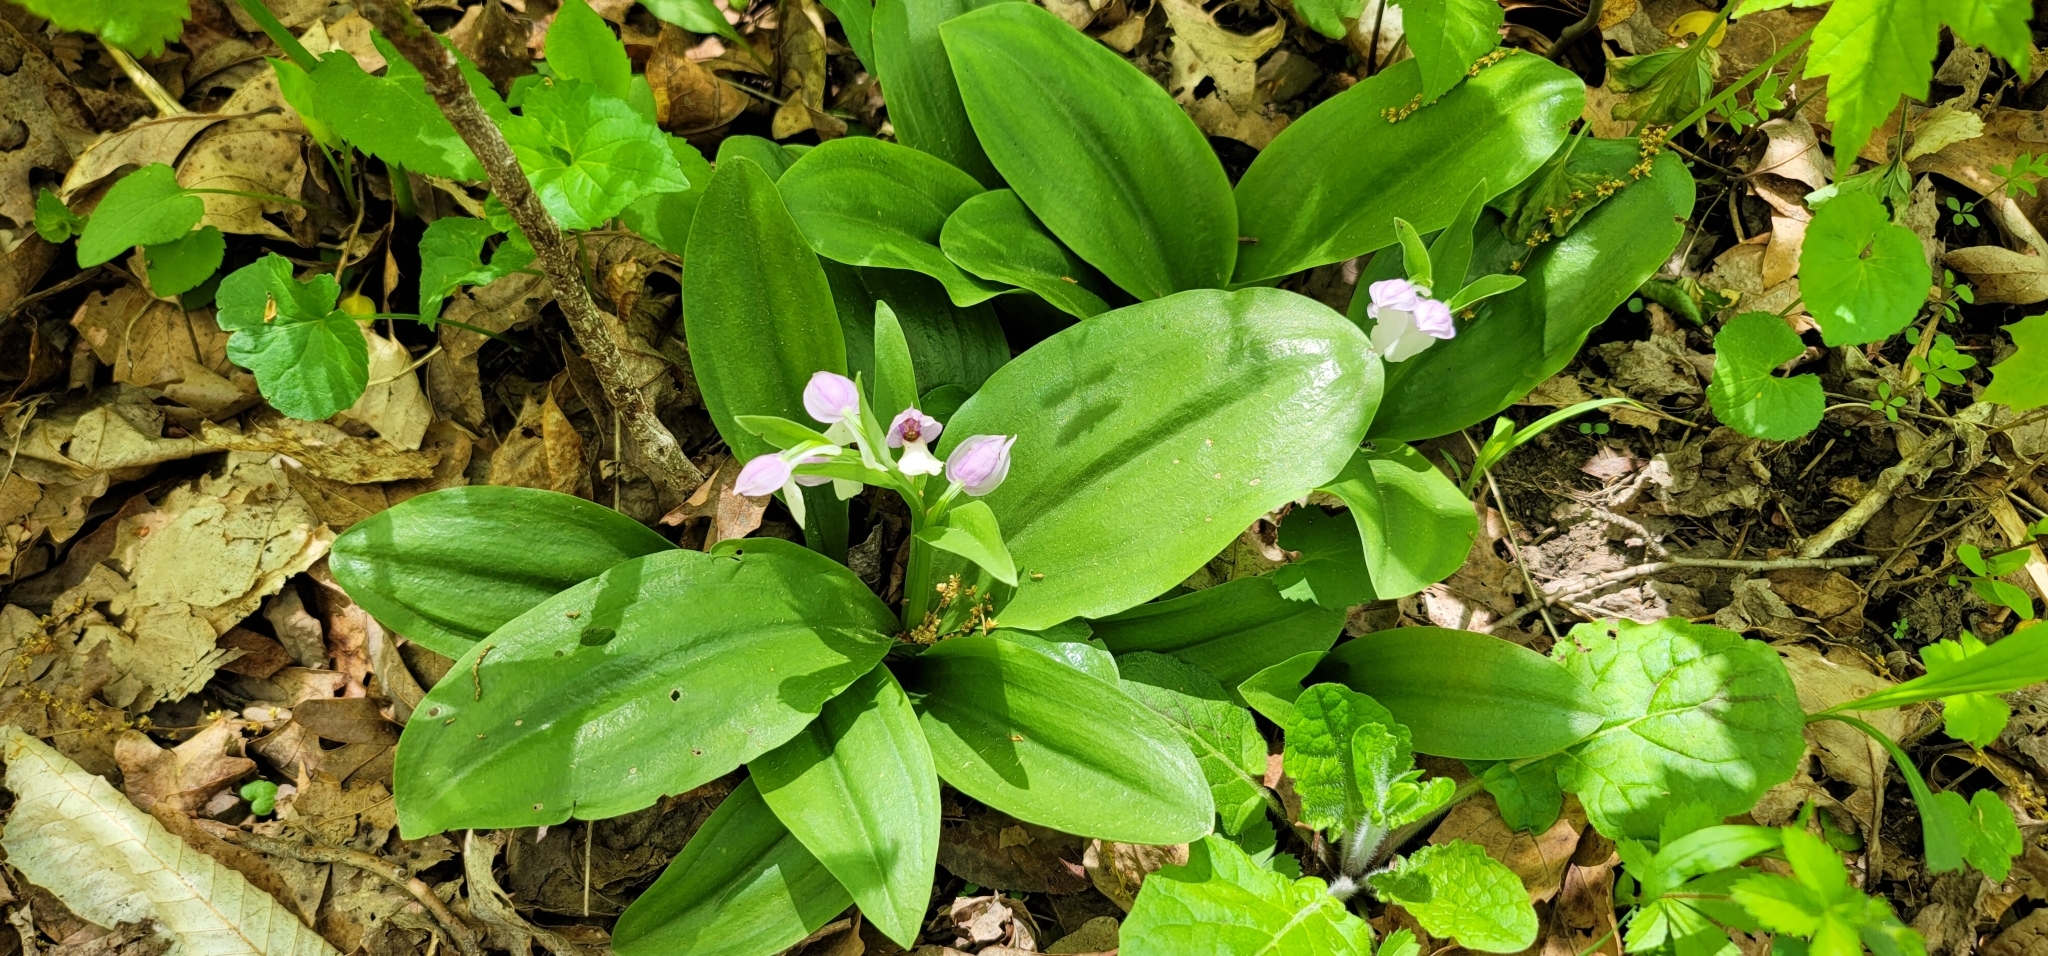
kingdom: Plantae
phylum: Tracheophyta
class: Liliopsida
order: Asparagales
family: Orchidaceae
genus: Galearis
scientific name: Galearis spectabilis
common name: Purple-hooded orchis
